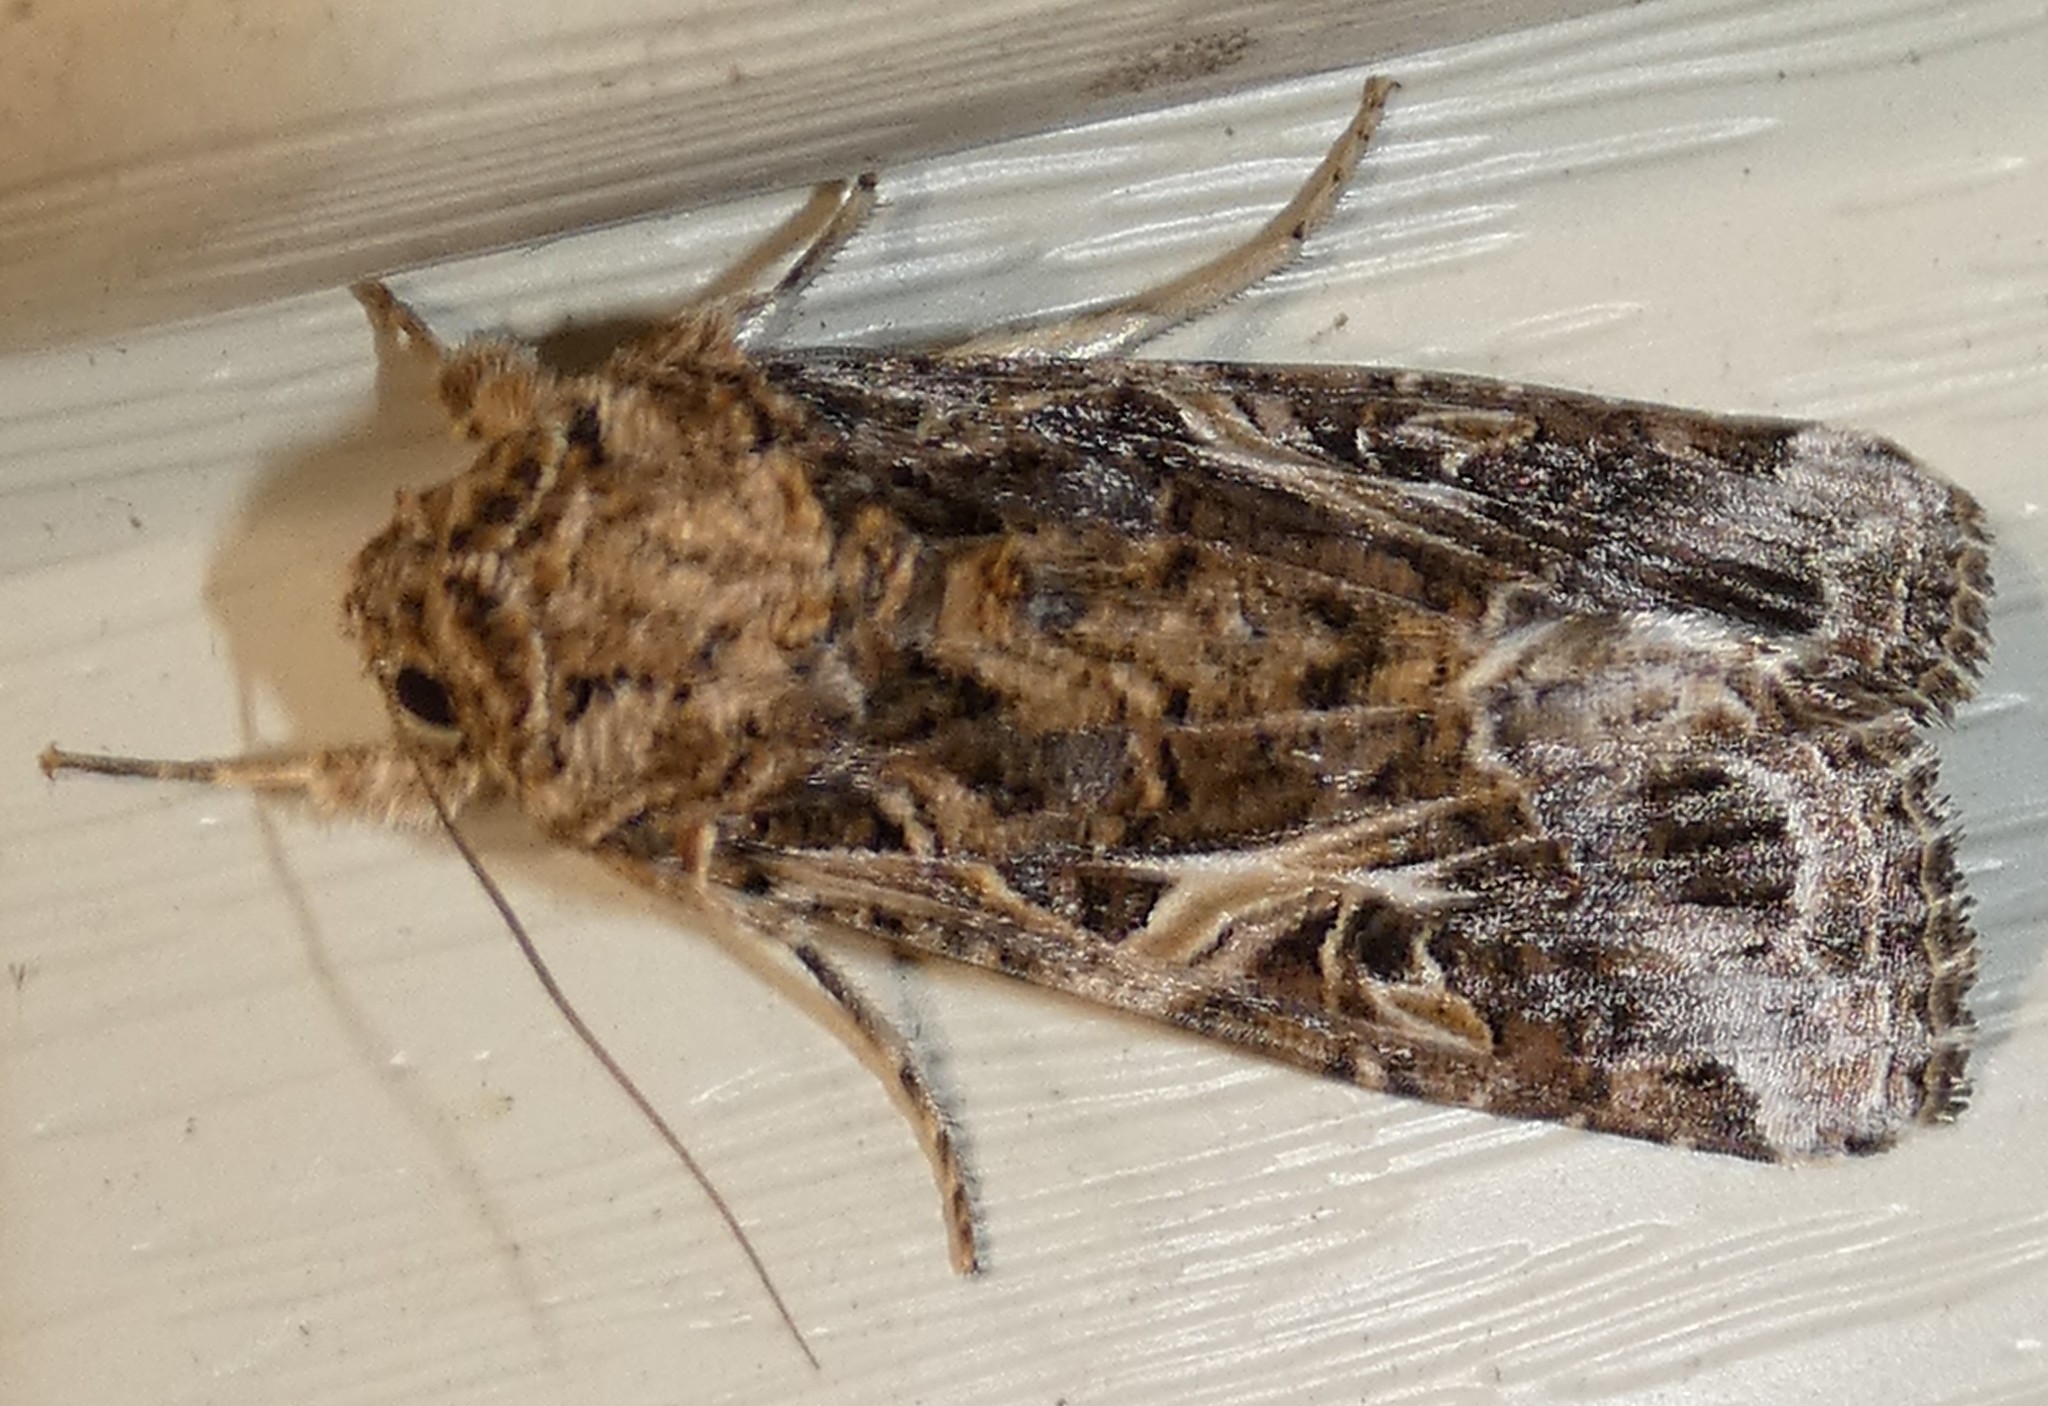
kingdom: Animalia
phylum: Arthropoda
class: Insecta
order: Lepidoptera
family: Noctuidae
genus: Spodoptera
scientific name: Spodoptera ornithogalli
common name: Yellow-striped armyworm
